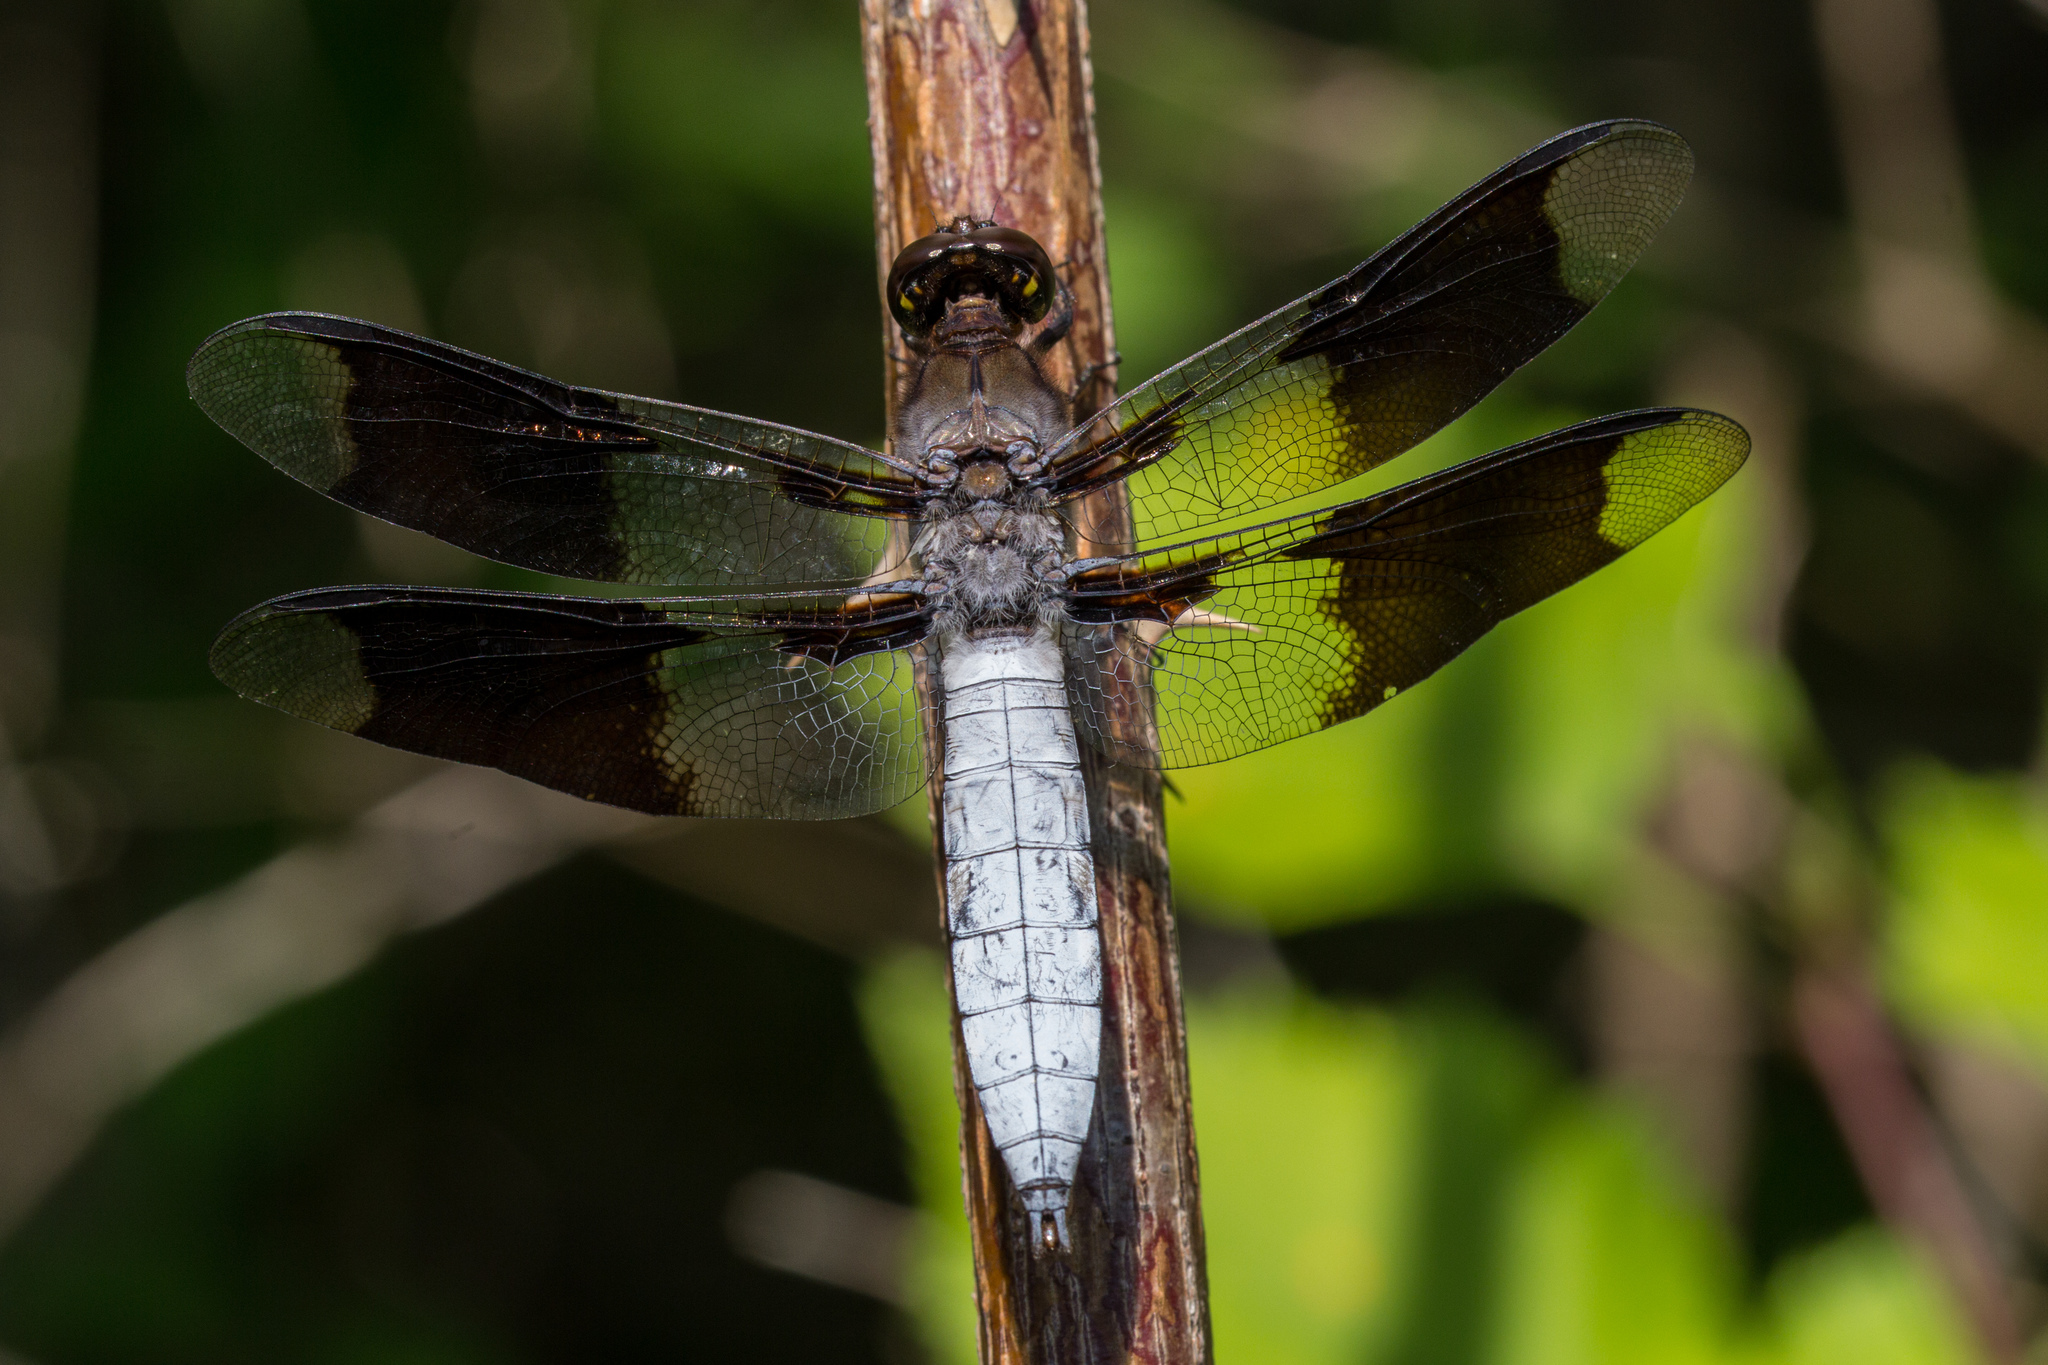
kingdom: Animalia
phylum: Arthropoda
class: Insecta
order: Odonata
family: Libellulidae
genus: Plathemis
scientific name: Plathemis lydia
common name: Common whitetail
